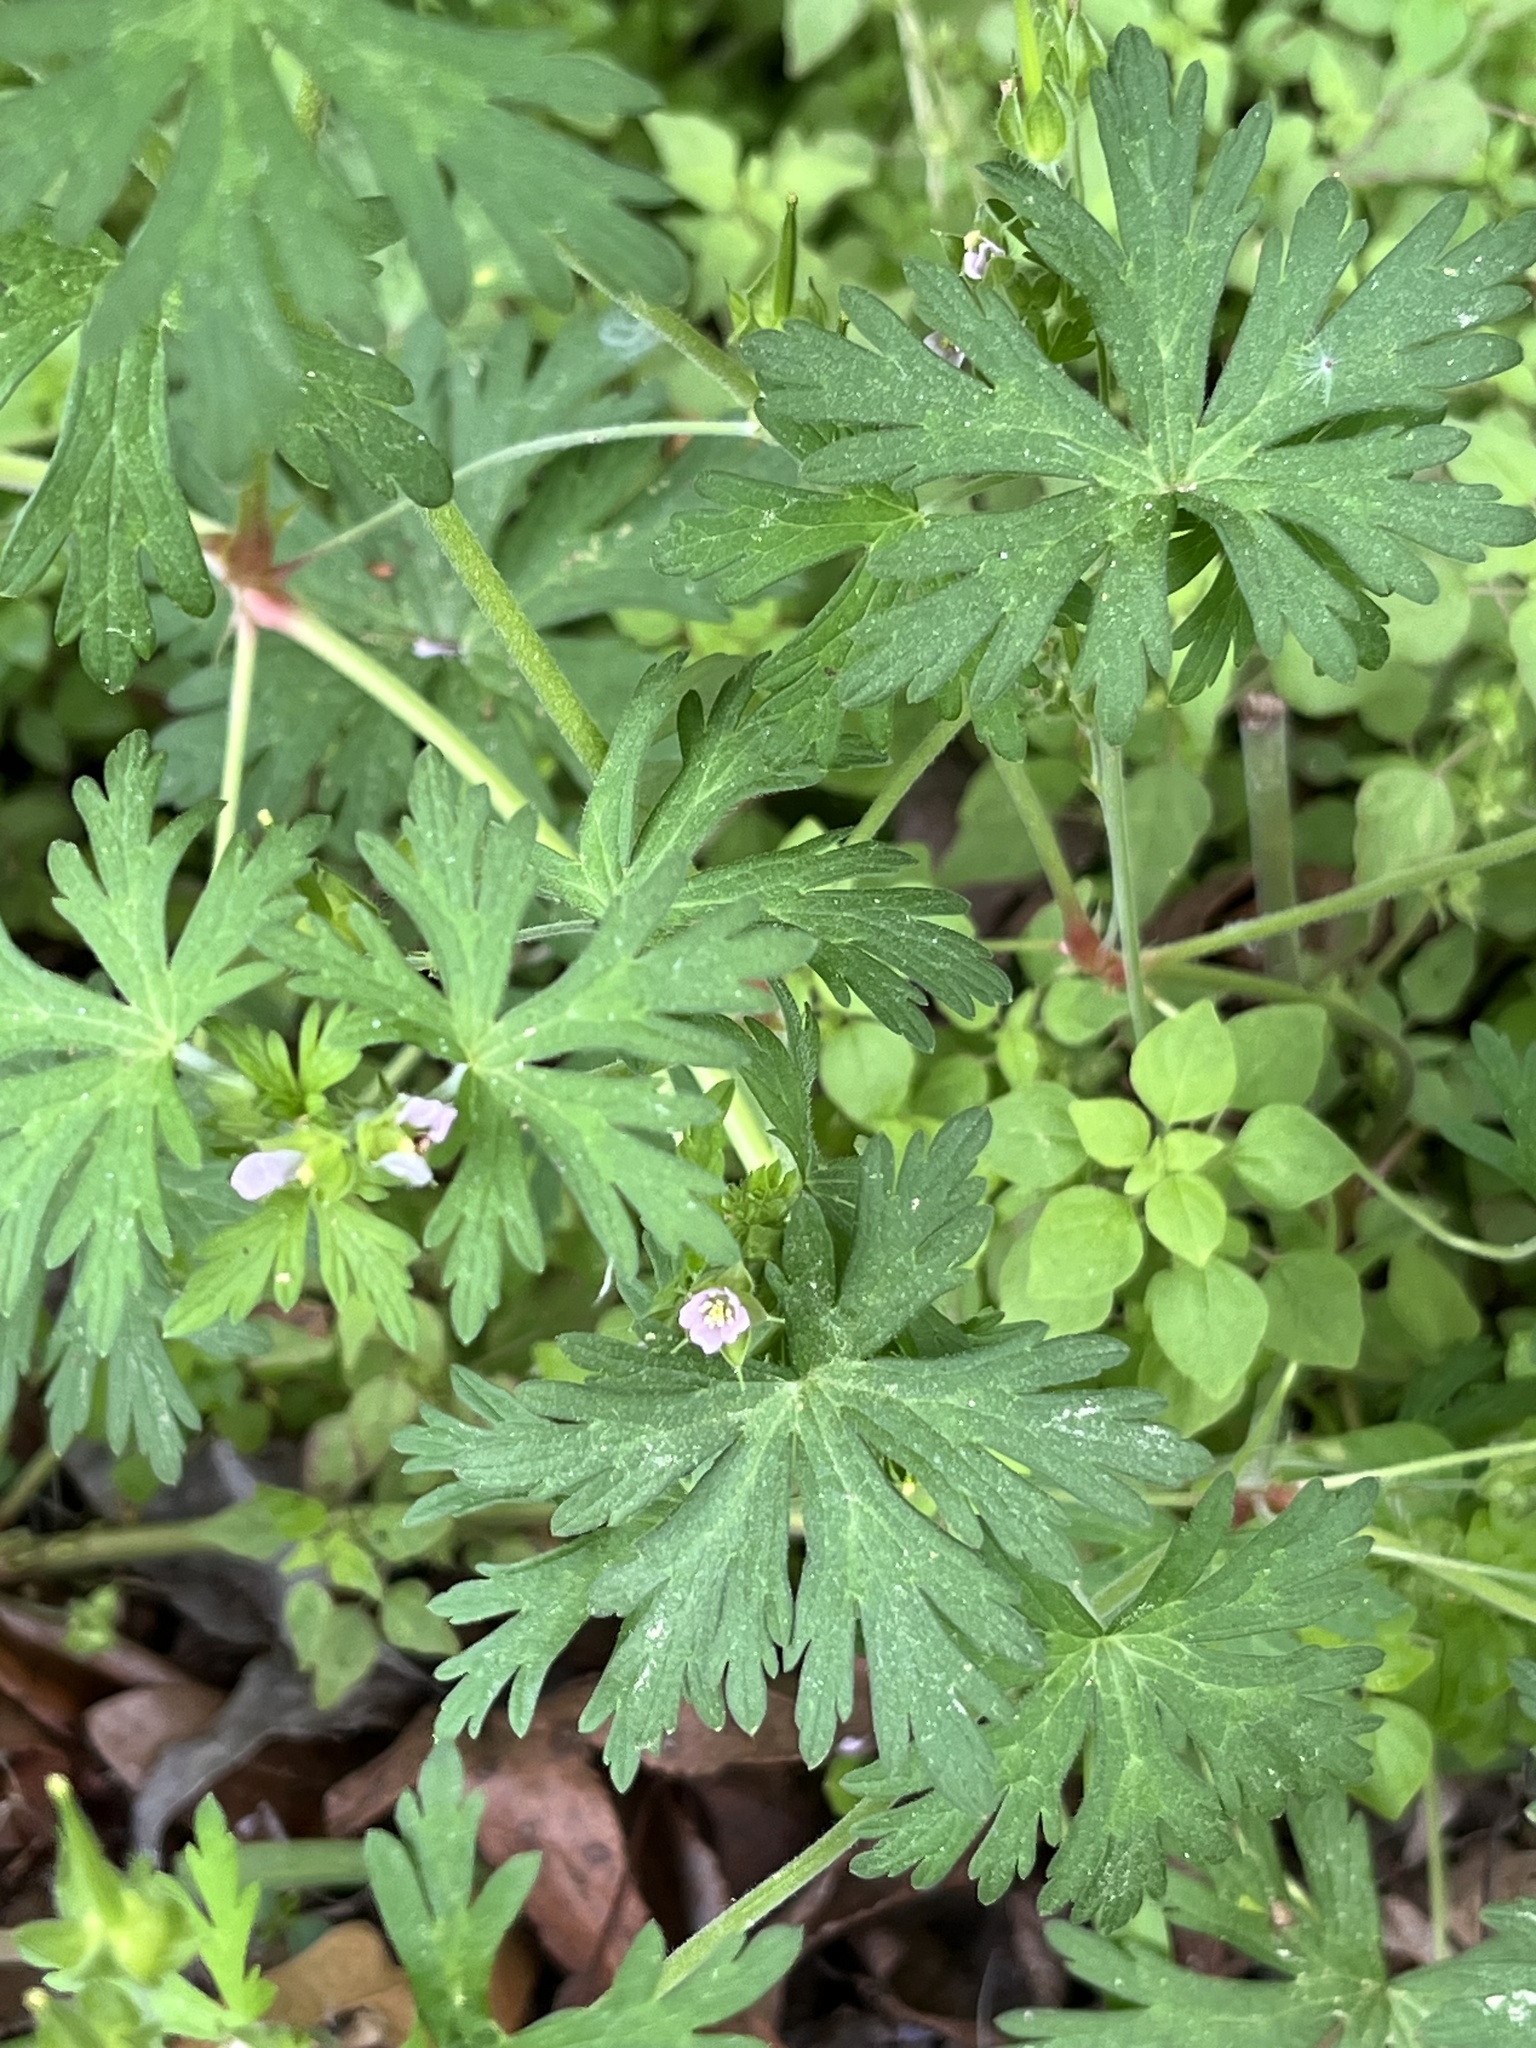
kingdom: Plantae
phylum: Tracheophyta
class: Magnoliopsida
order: Geraniales
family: Geraniaceae
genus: Geranium
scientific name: Geranium carolinianum
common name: Carolina crane's-bill
